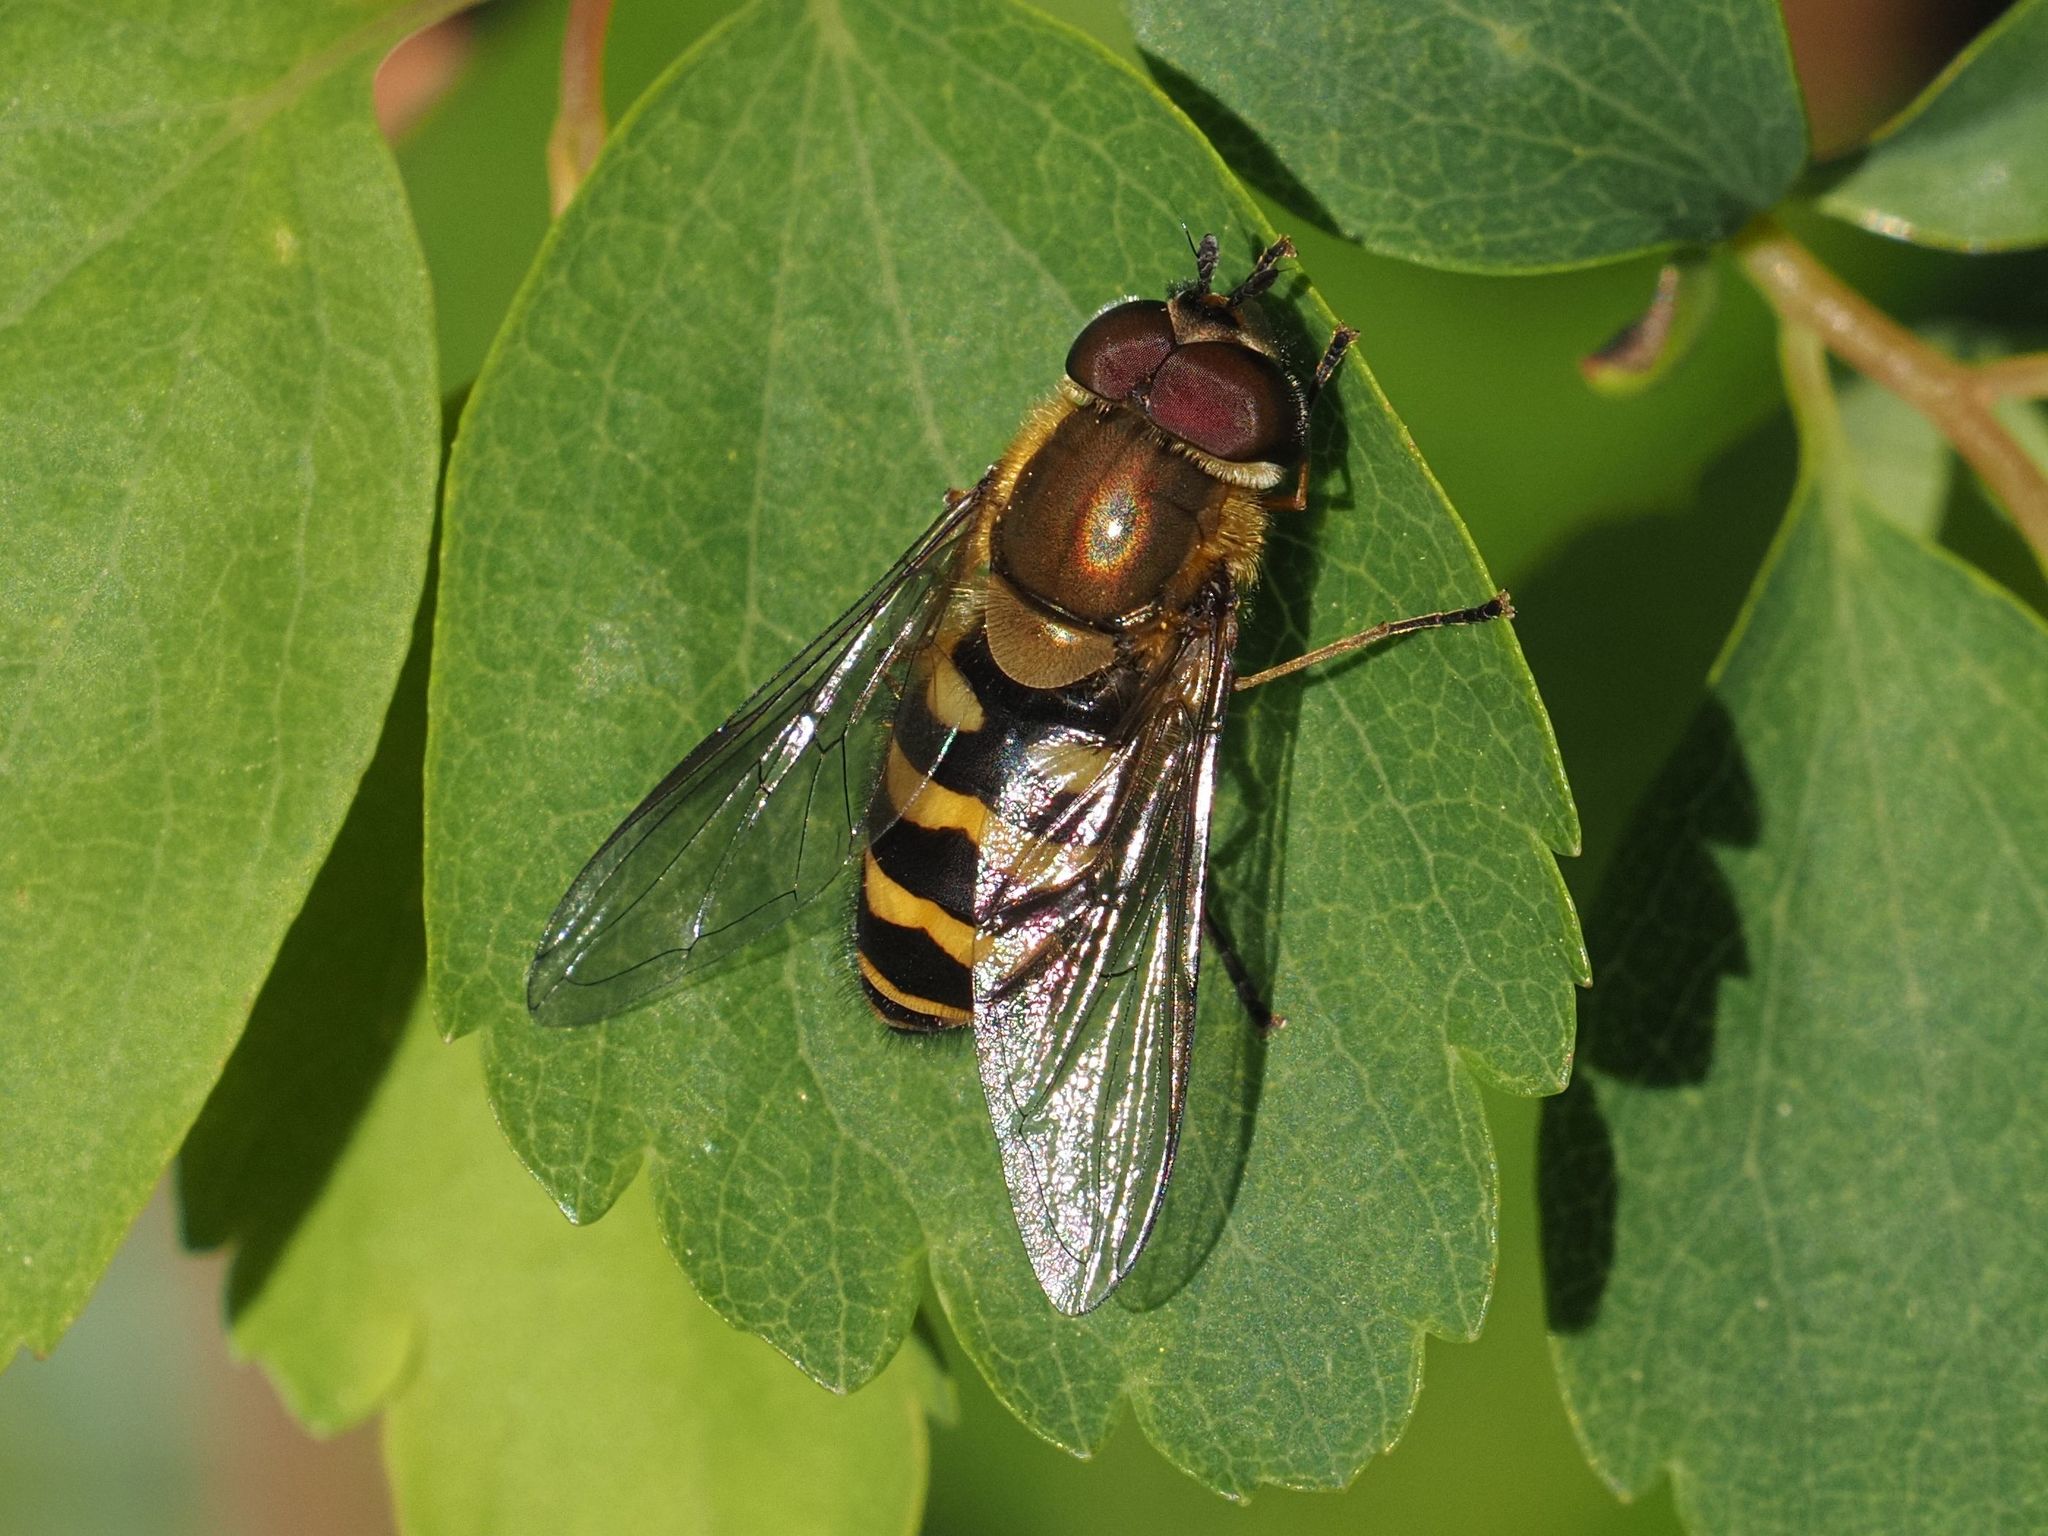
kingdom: Animalia
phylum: Arthropoda
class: Insecta
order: Diptera
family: Syrphidae
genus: Syrphus
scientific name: Syrphus torvus
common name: Hairy-eyed flower fly
